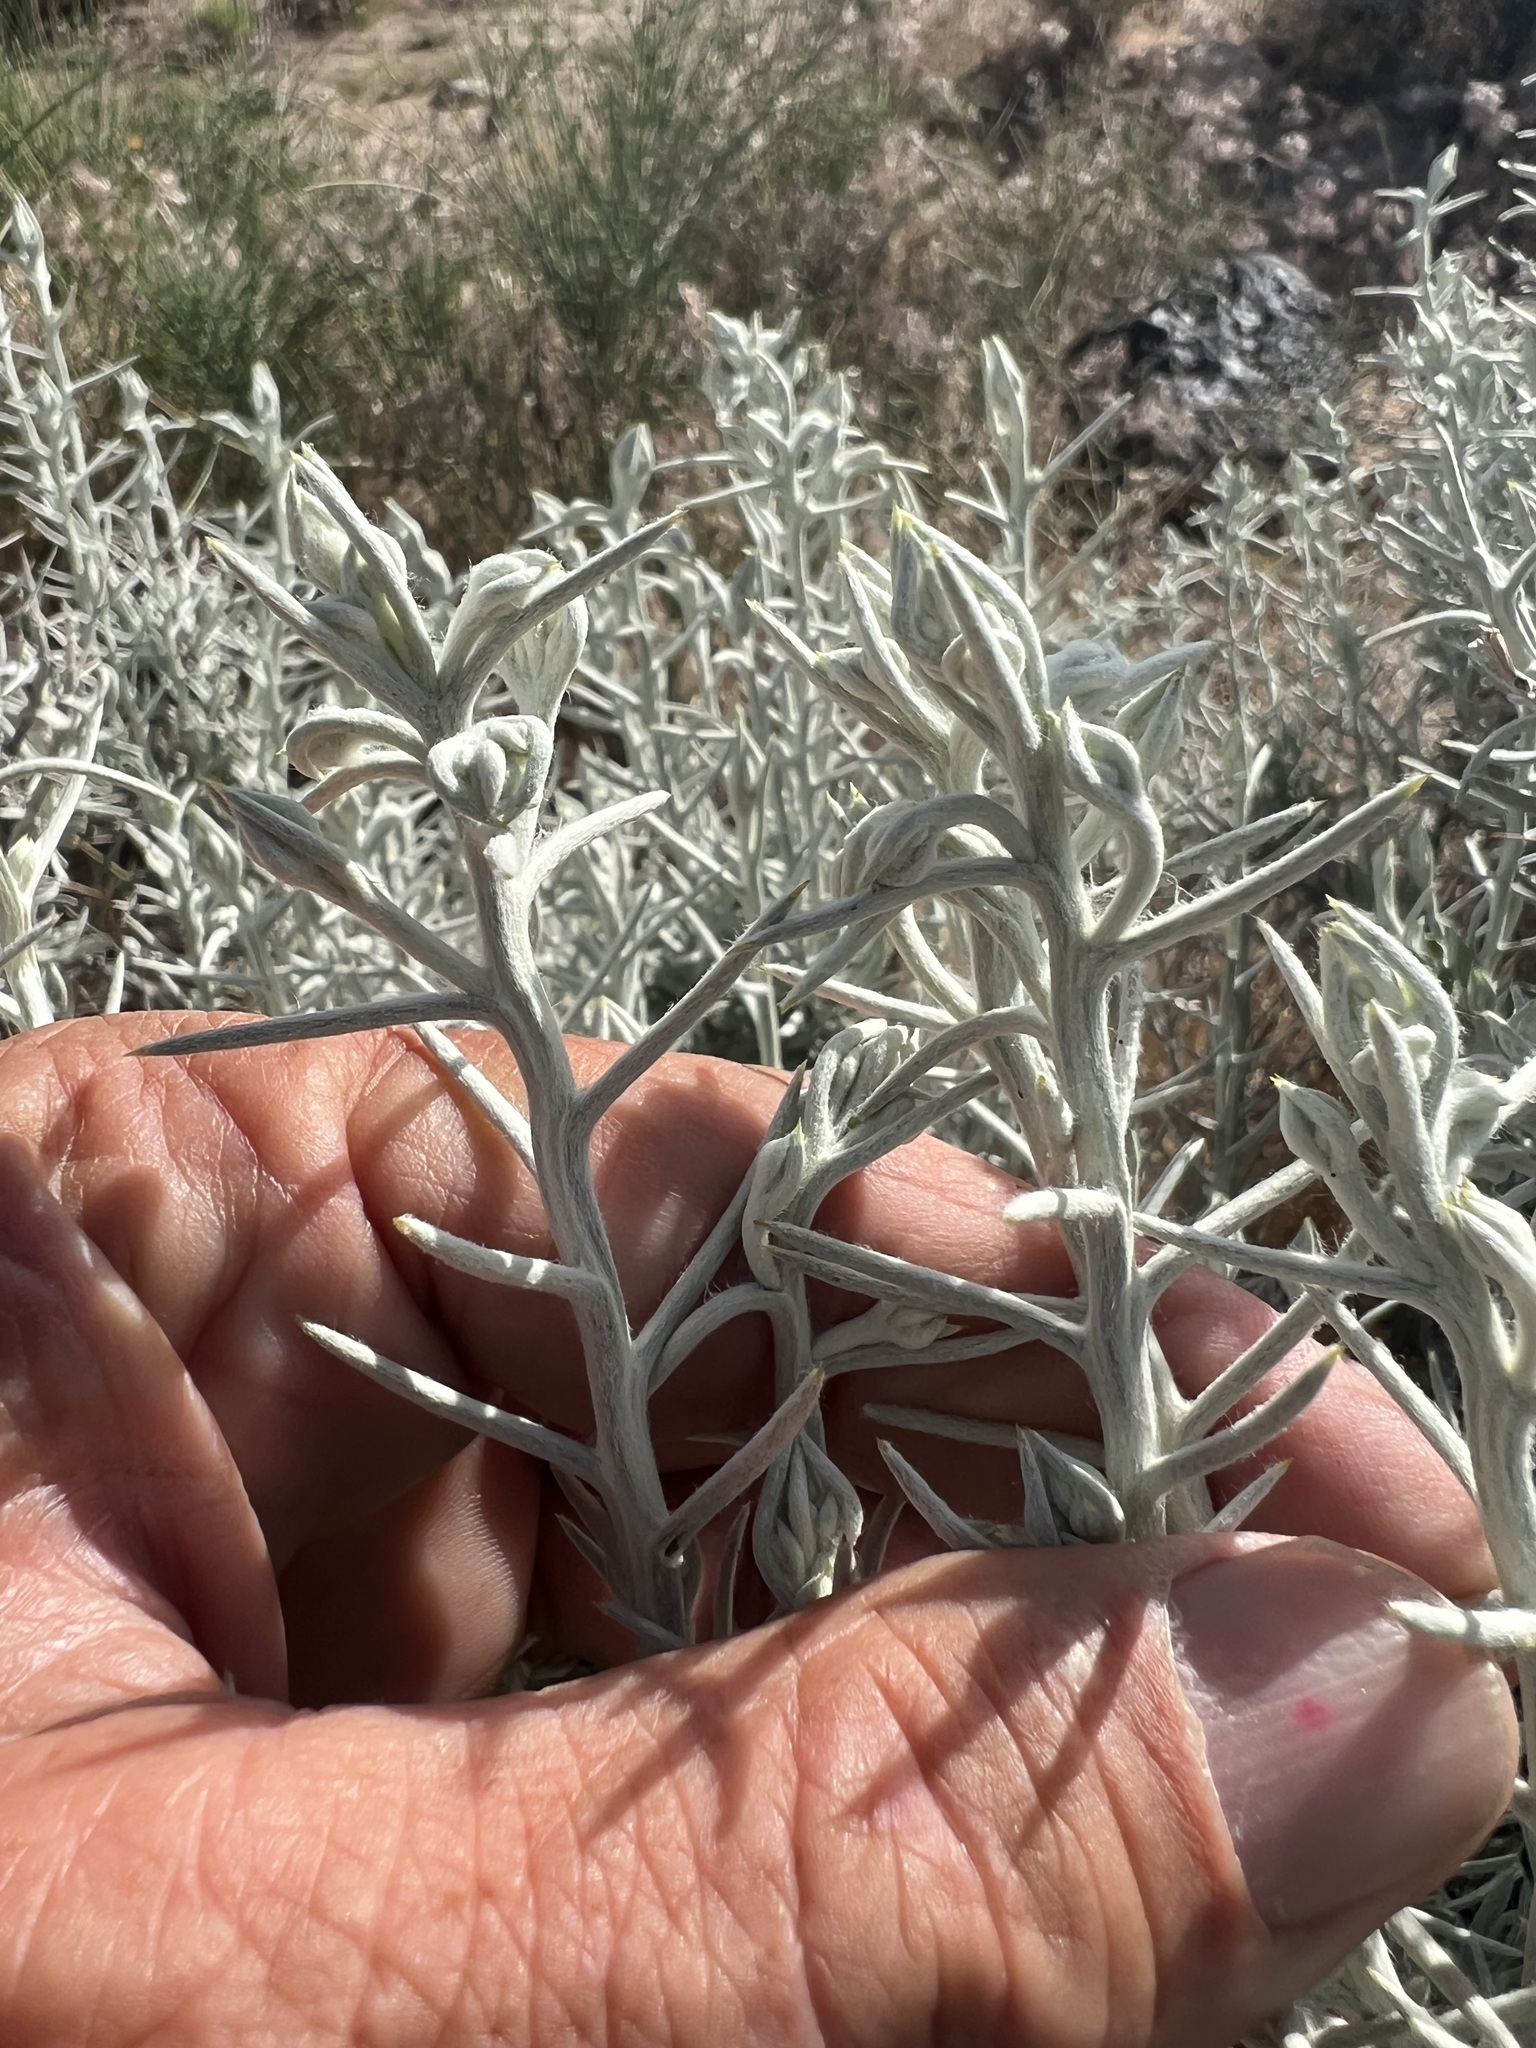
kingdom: Plantae
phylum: Tracheophyta
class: Magnoliopsida
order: Asterales
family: Asteraceae
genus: Tetradymia
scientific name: Tetradymia stenolepis
